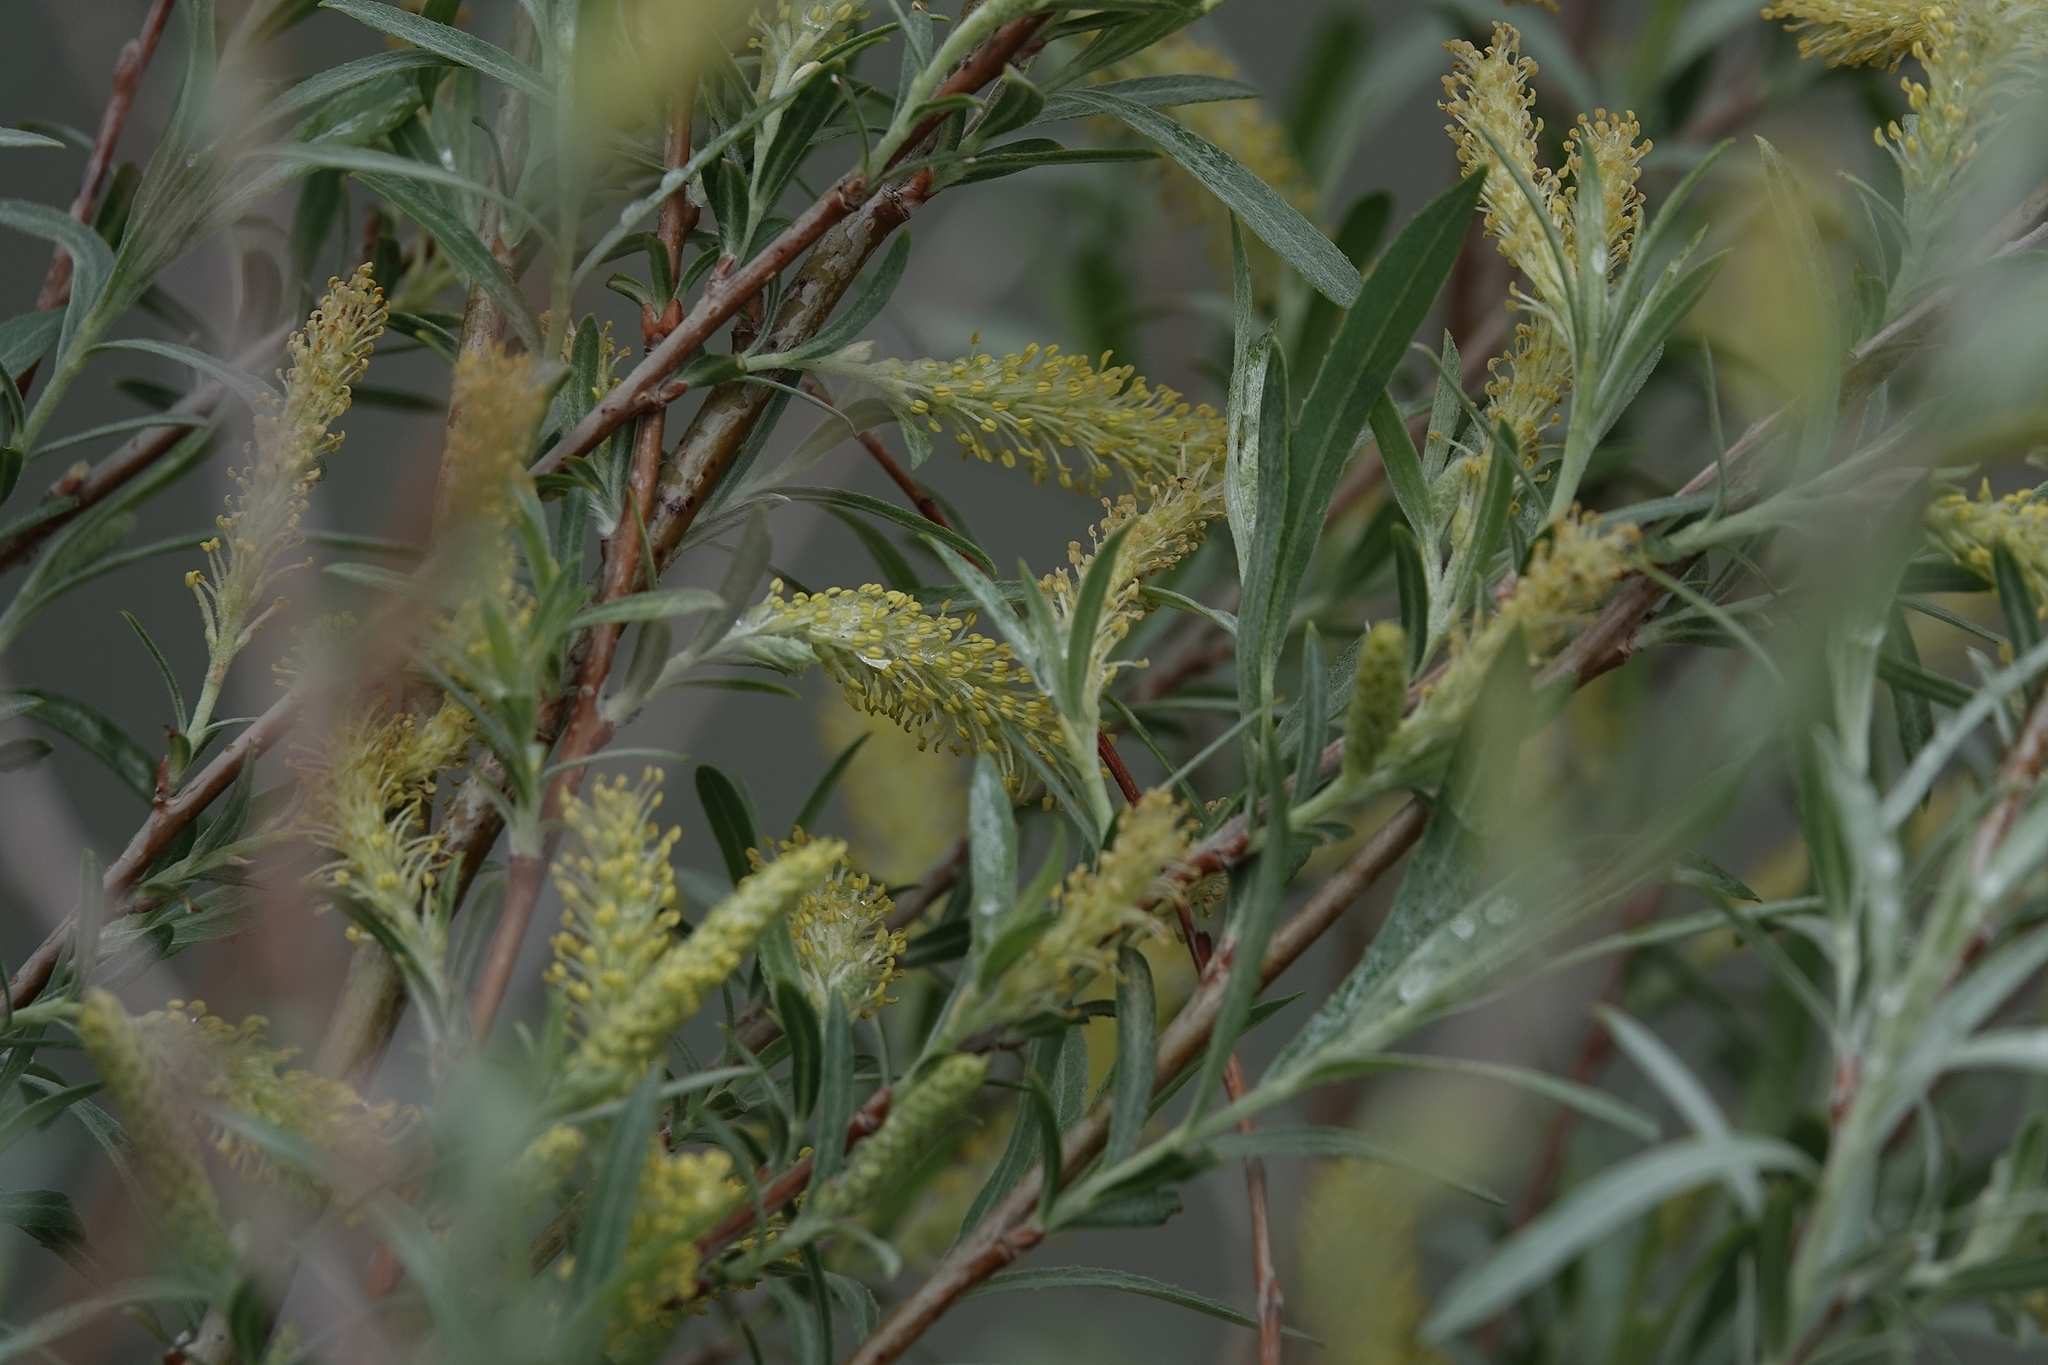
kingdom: Plantae
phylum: Tracheophyta
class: Magnoliopsida
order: Malpighiales
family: Salicaceae
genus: Salix
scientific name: Salix exigua
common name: Coyote willow
